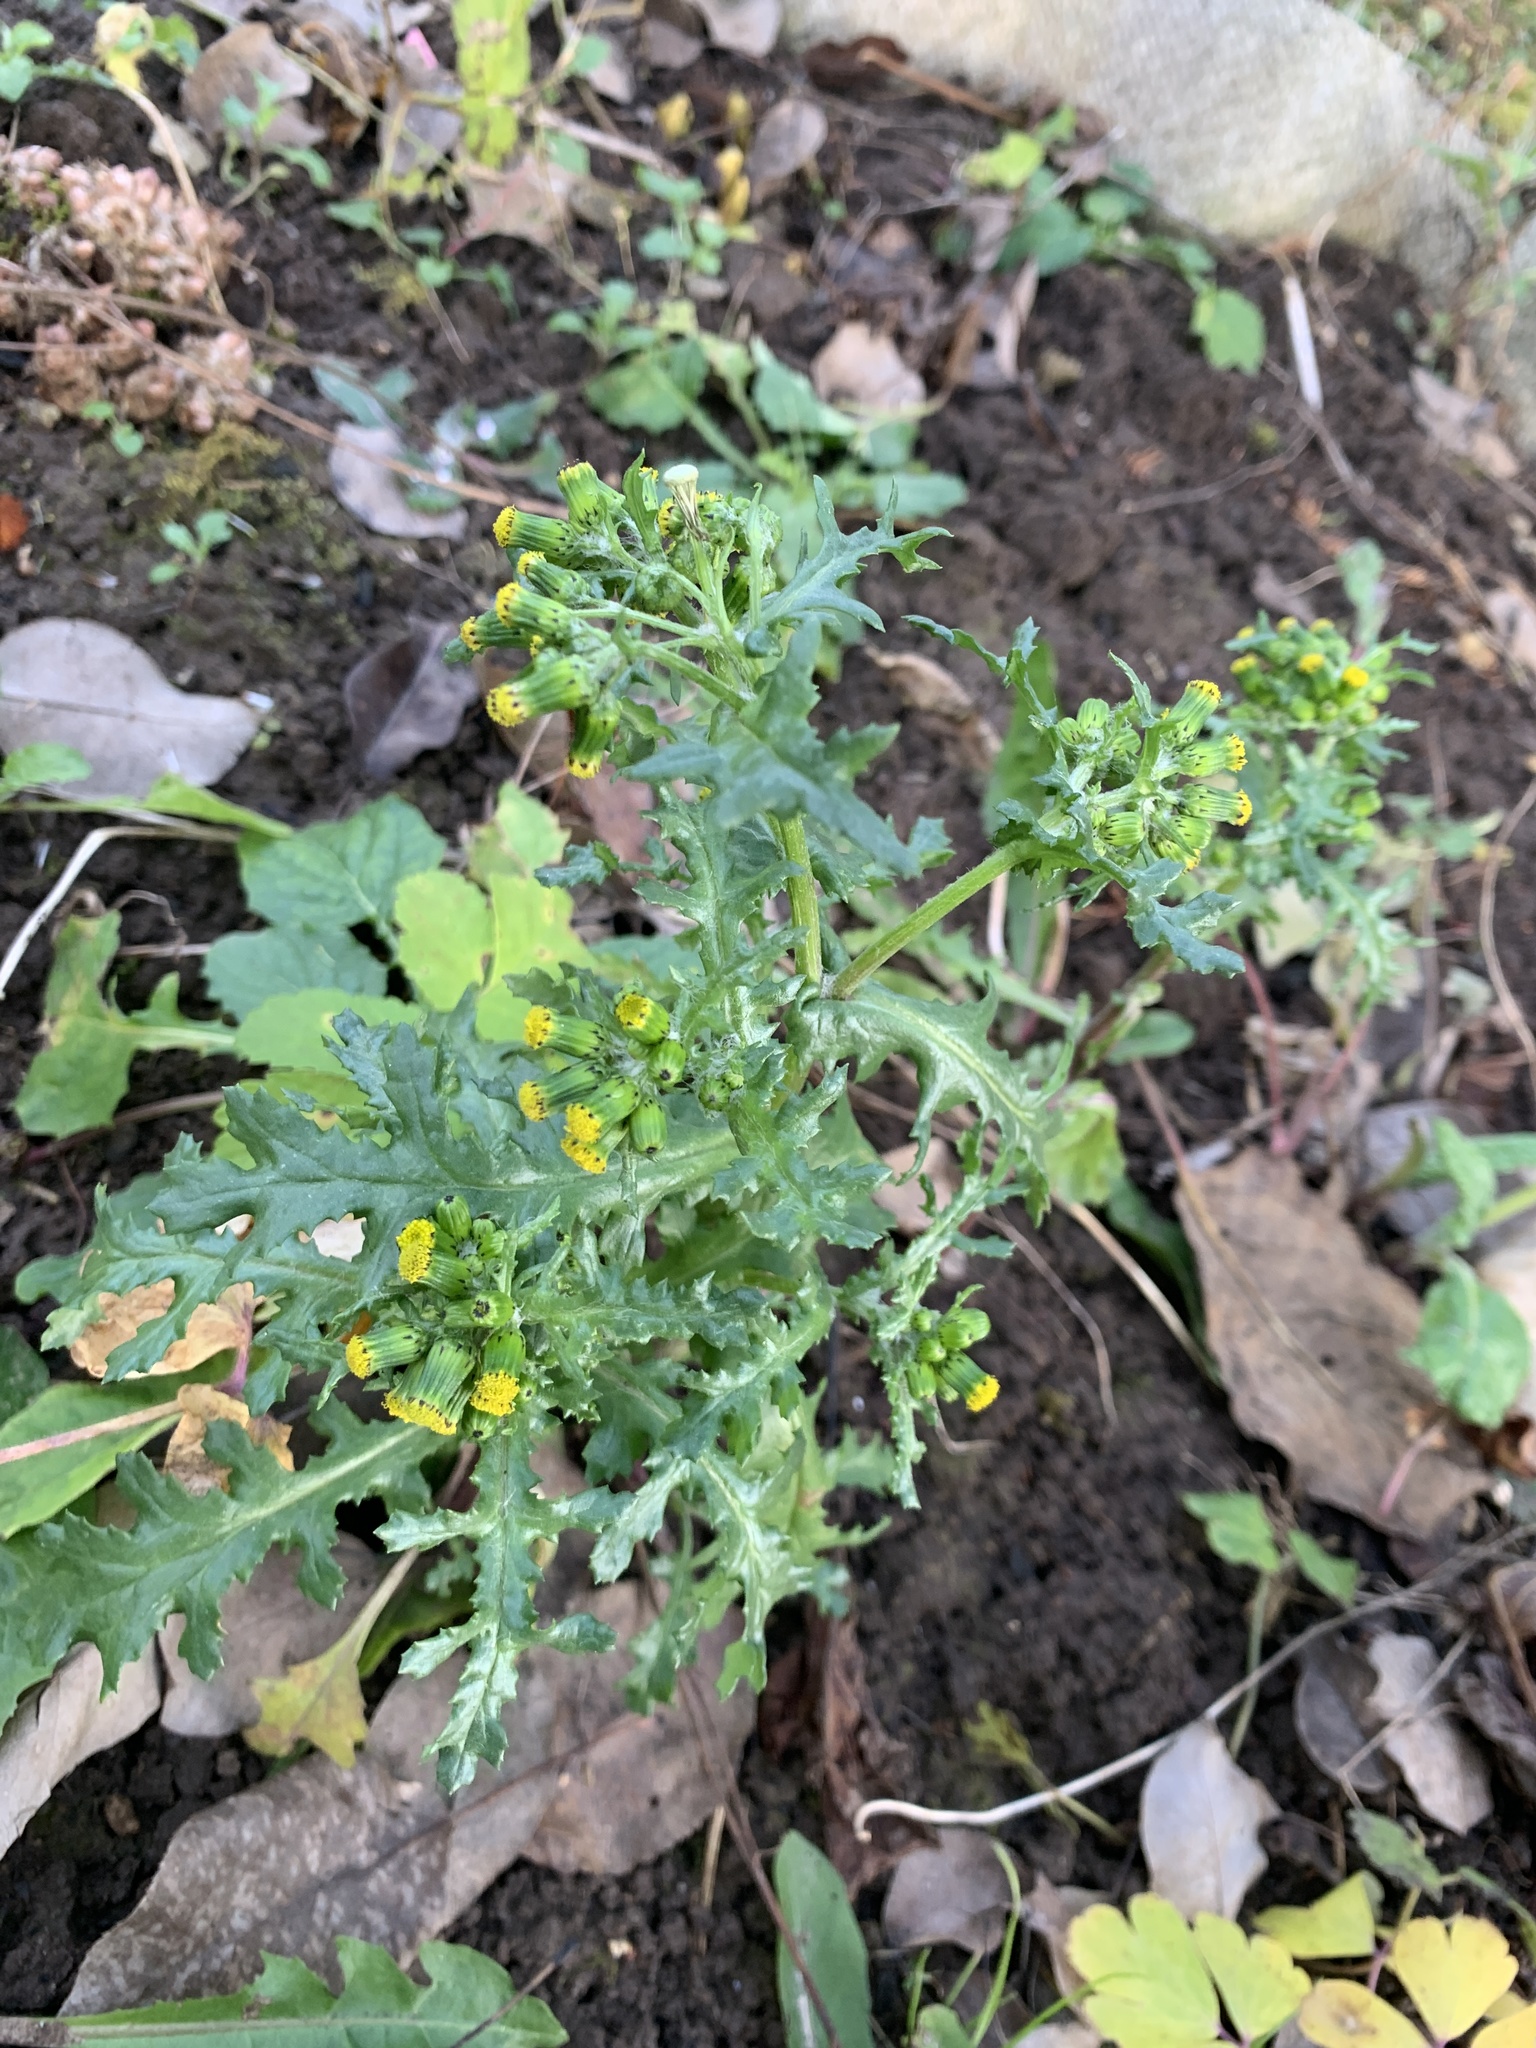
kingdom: Plantae
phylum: Tracheophyta
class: Magnoliopsida
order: Asterales
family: Asteraceae
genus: Senecio
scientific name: Senecio vulgaris
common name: Old-man-in-the-spring
